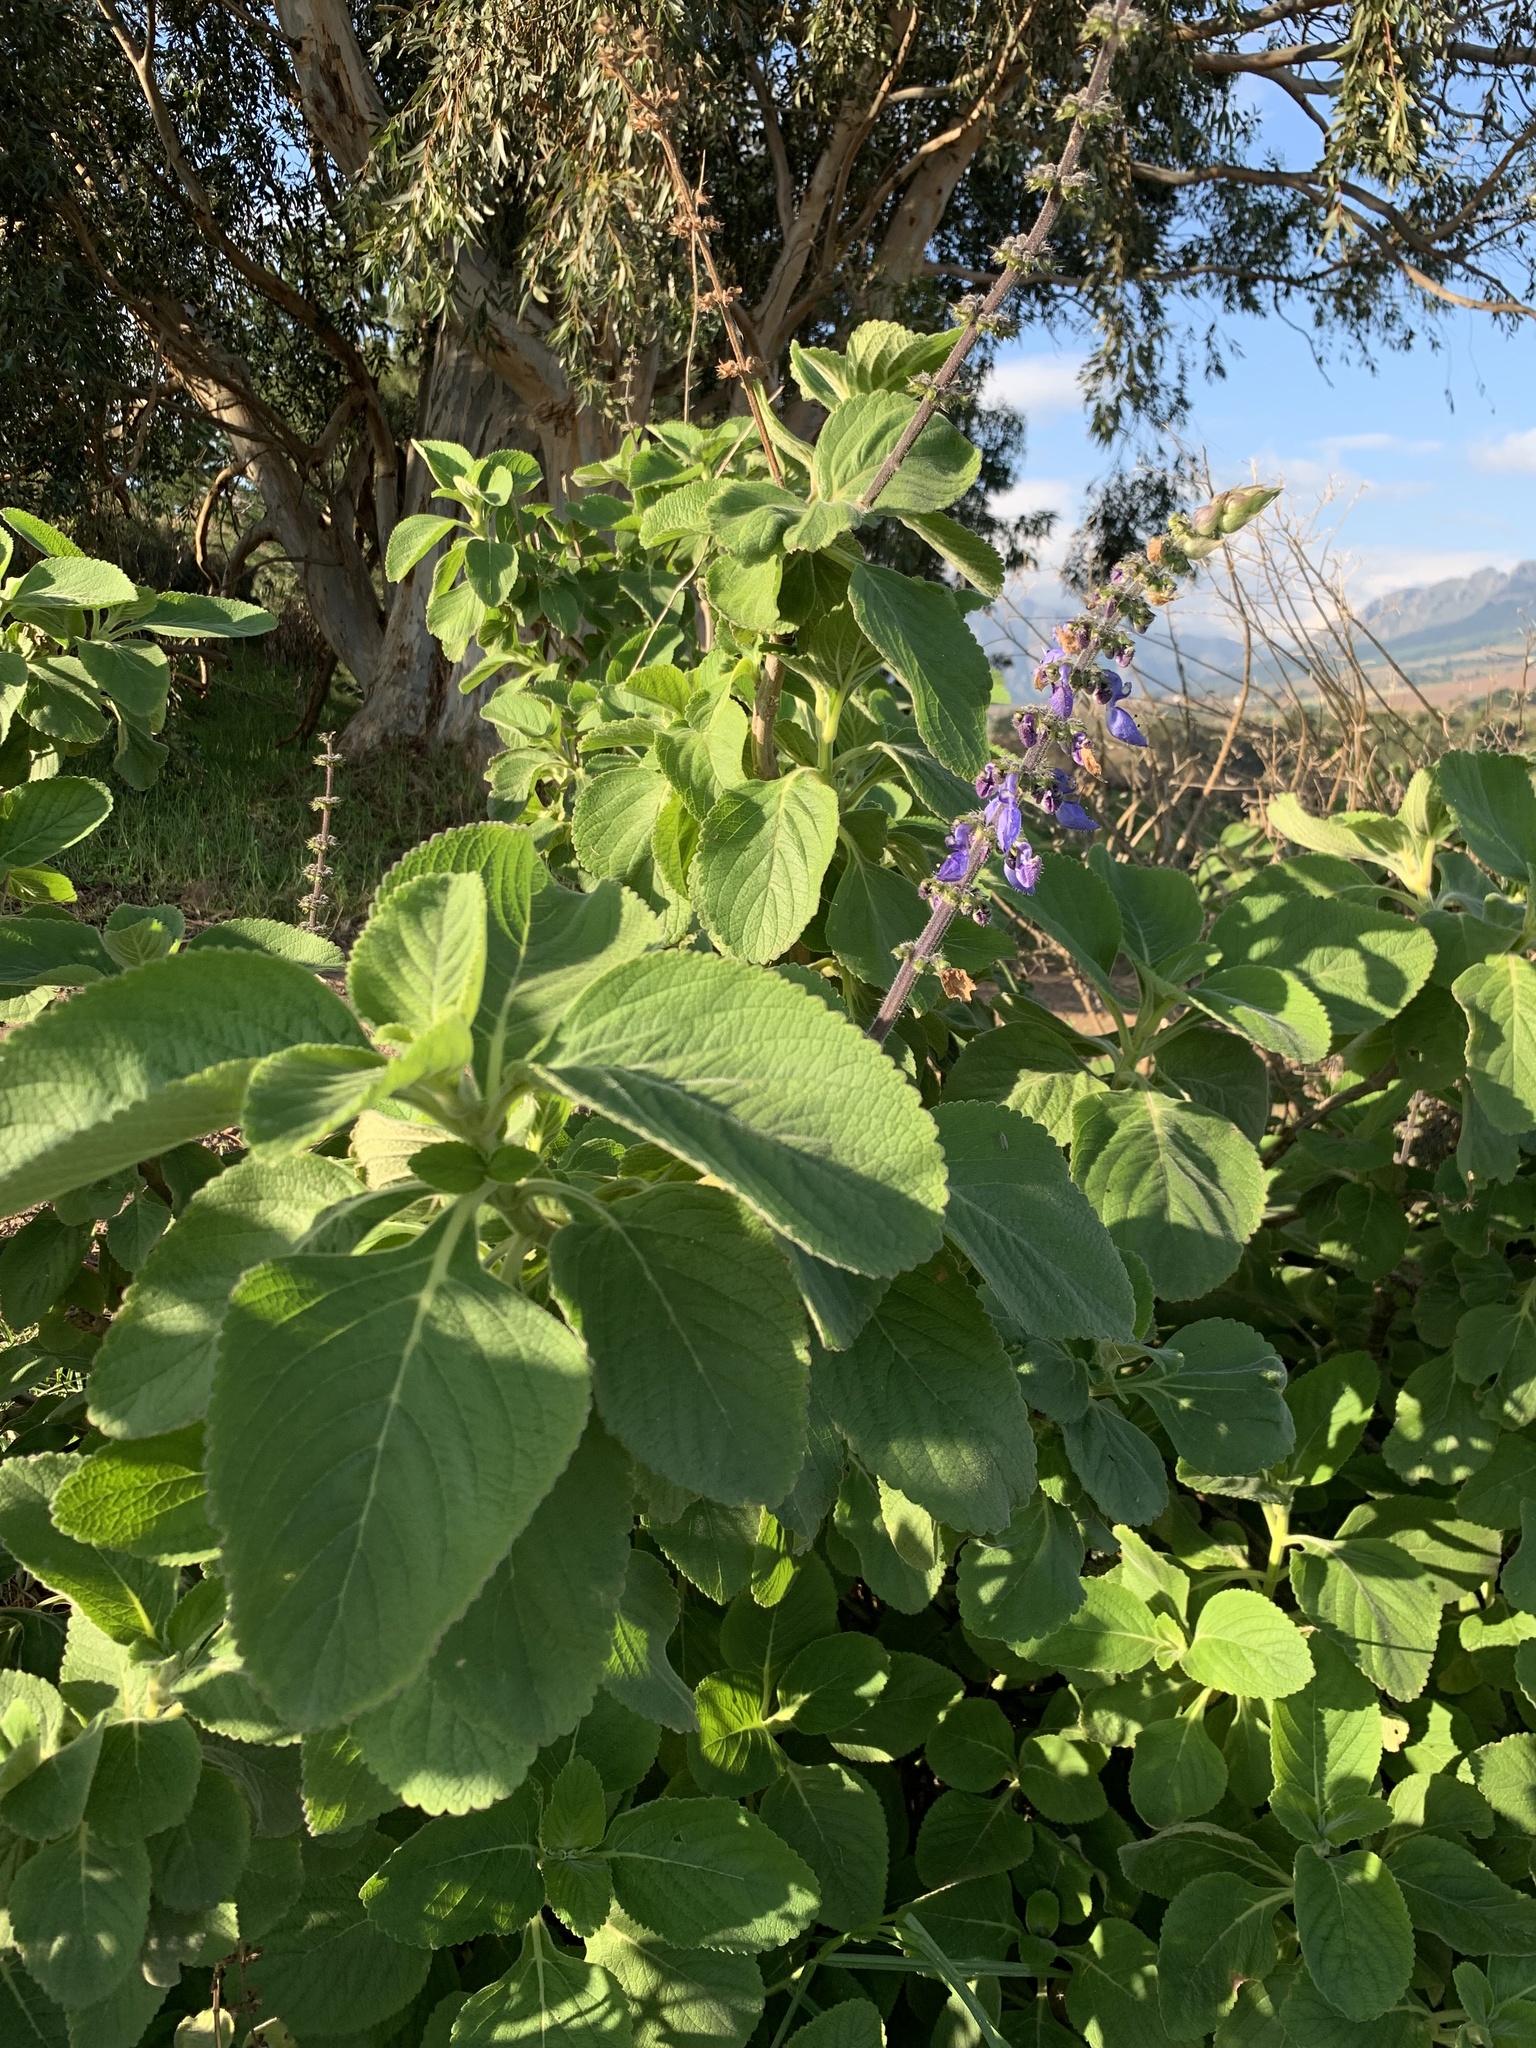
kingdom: Plantae
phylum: Tracheophyta
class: Magnoliopsida
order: Lamiales
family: Lamiaceae
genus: Coleus
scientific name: Coleus barbatus
